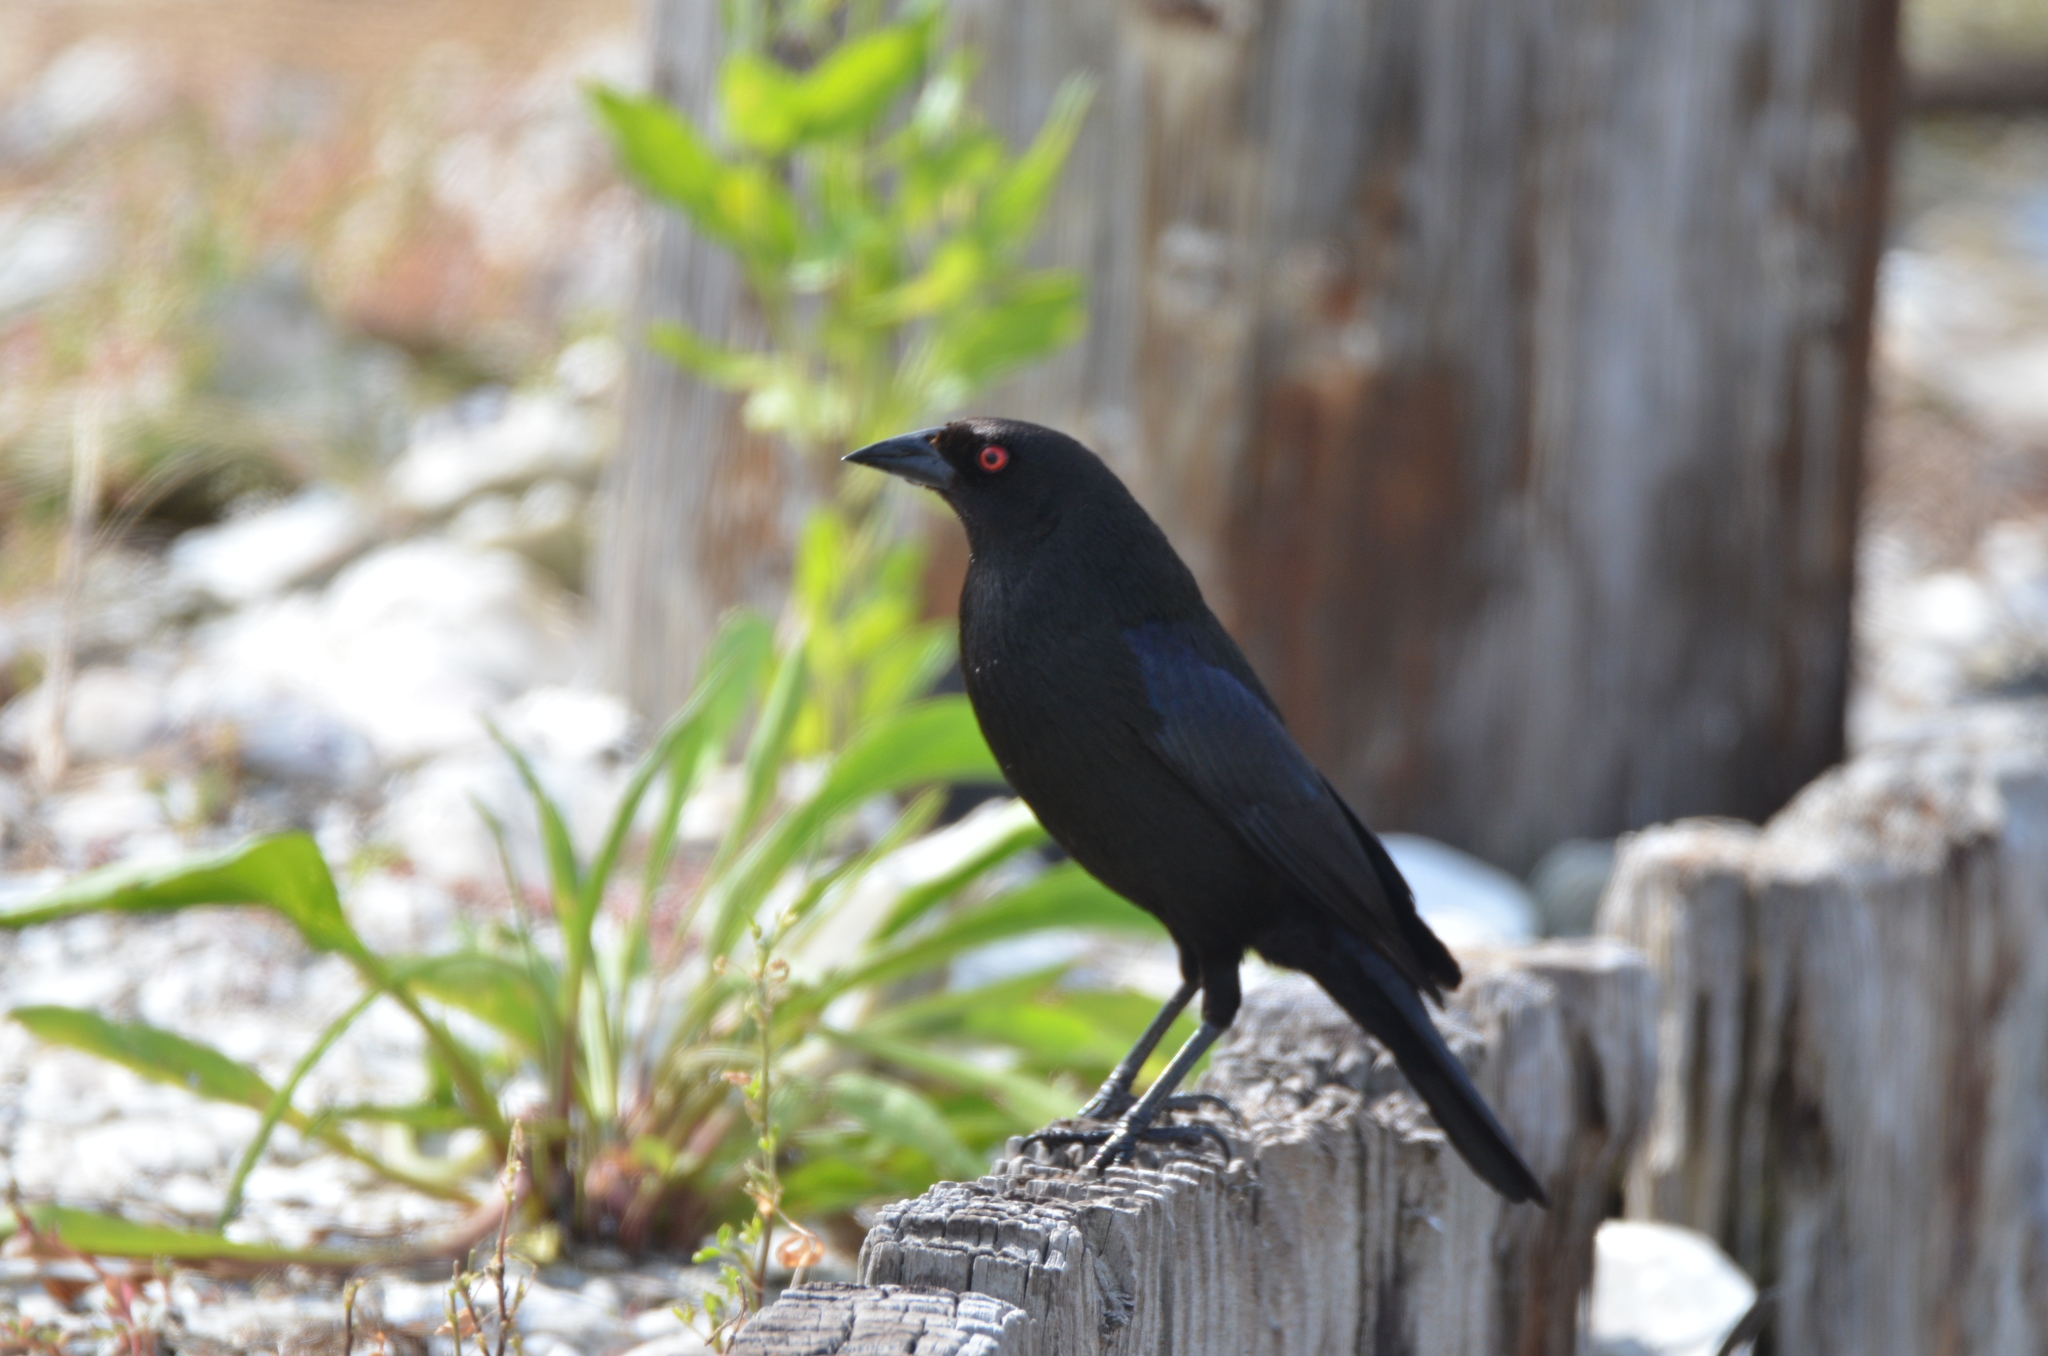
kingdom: Animalia
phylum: Chordata
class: Aves
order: Passeriformes
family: Icteridae
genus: Molothrus
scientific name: Molothrus aeneus
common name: Bronzed cowbird
